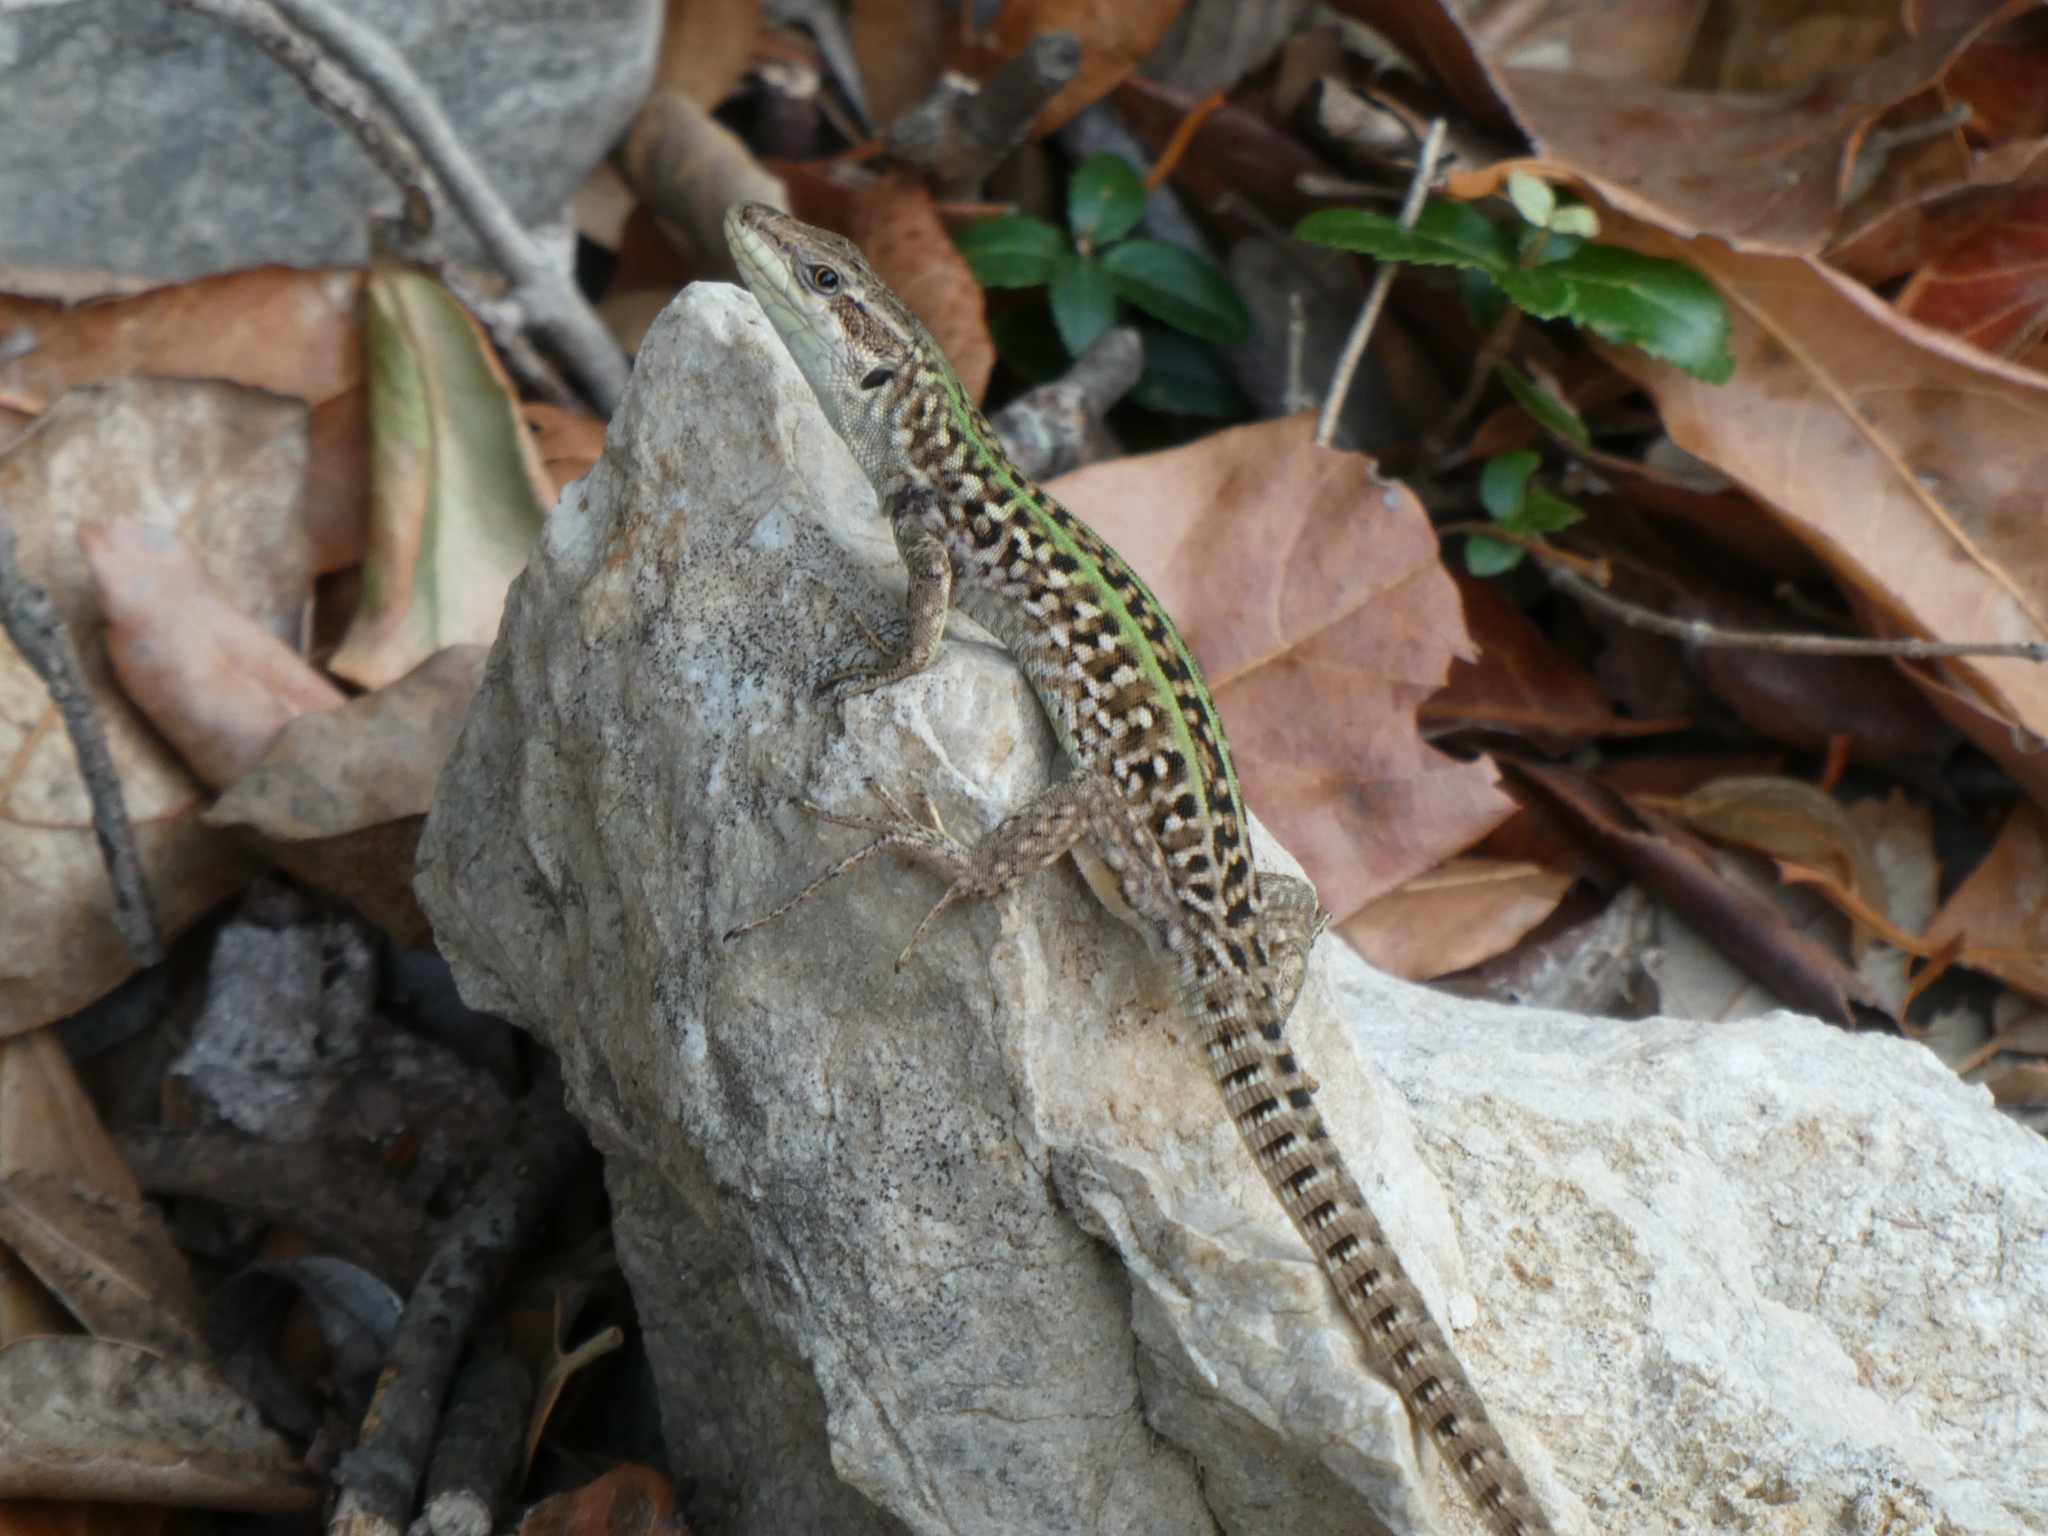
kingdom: Animalia
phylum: Chordata
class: Squamata
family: Lacertidae
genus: Podarcis
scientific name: Podarcis siculus
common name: Italian wall lizard
